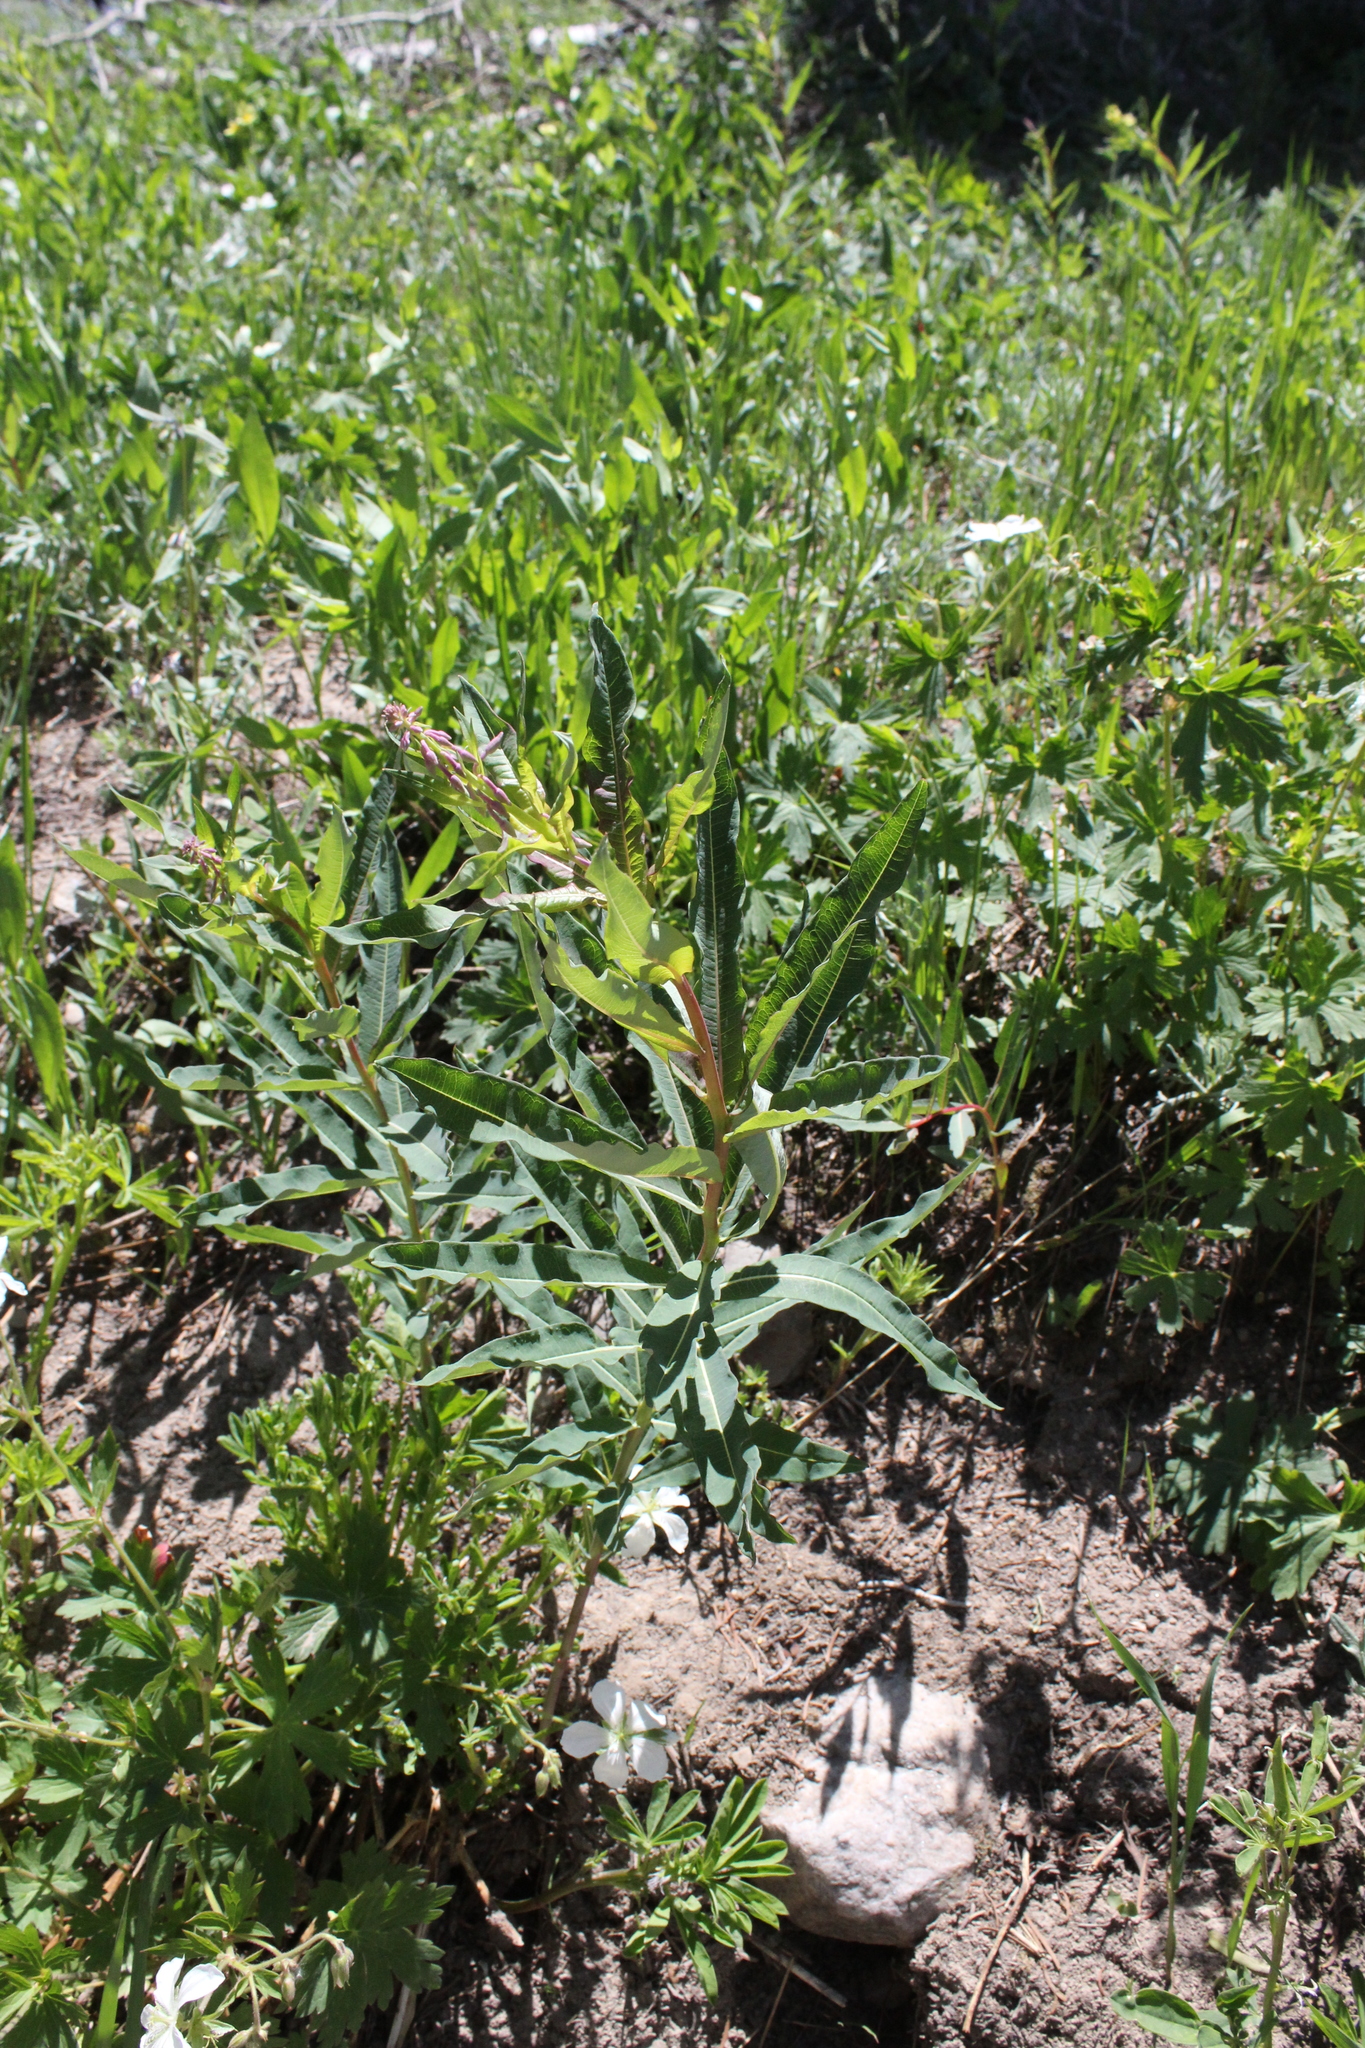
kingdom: Plantae
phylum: Tracheophyta
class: Magnoliopsida
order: Myrtales
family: Onagraceae
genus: Chamaenerion
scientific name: Chamaenerion angustifolium
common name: Fireweed
